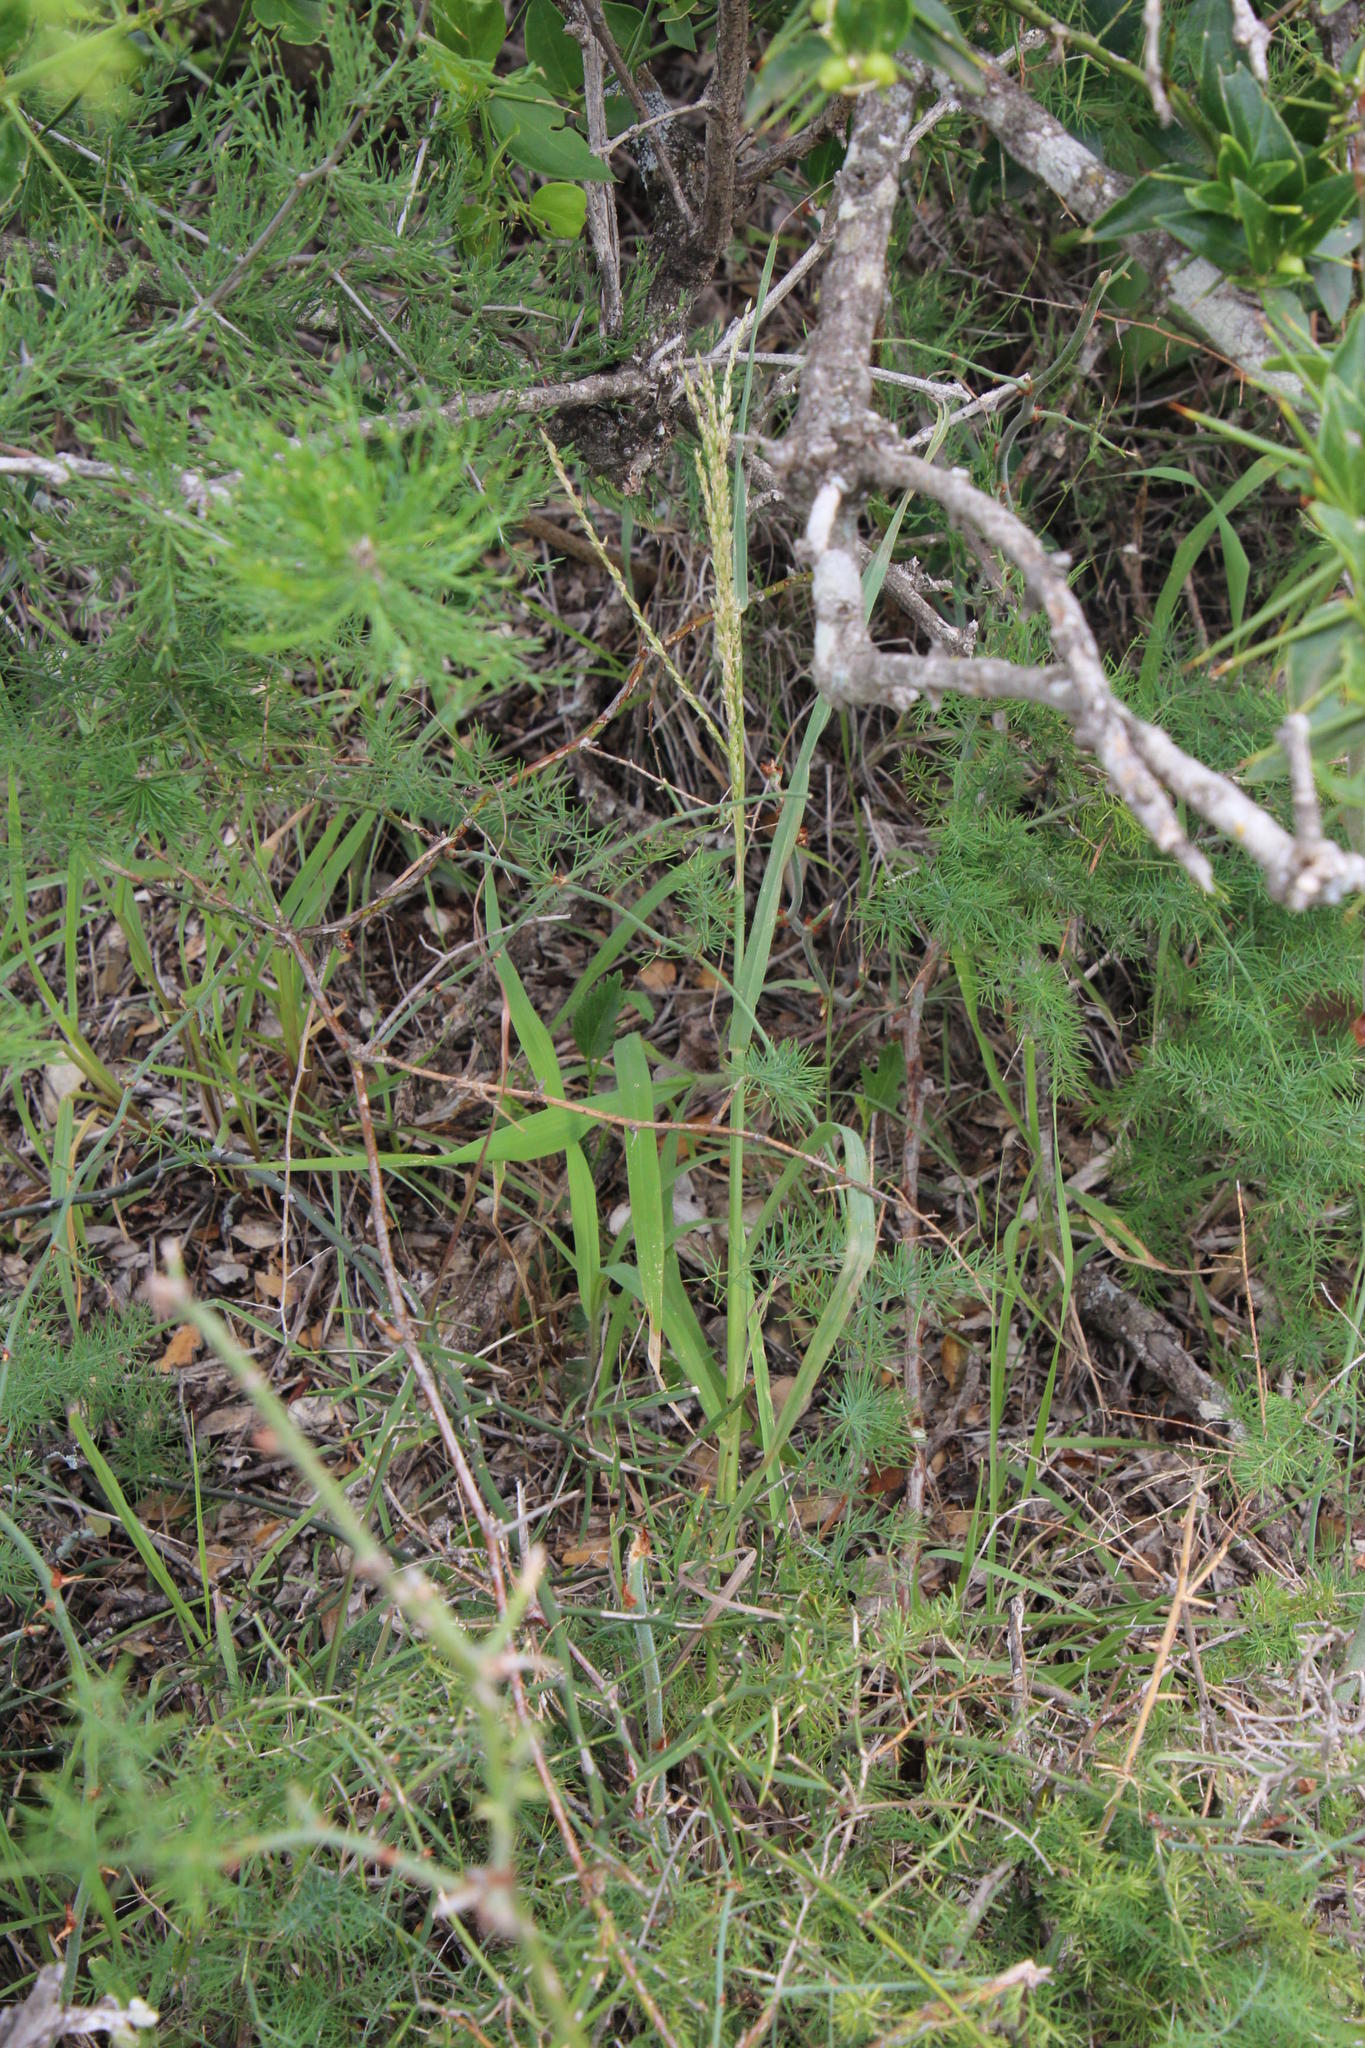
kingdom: Plantae
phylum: Tracheophyta
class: Liliopsida
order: Poales
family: Poaceae
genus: Digitaria
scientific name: Digitaria argyrograpta
